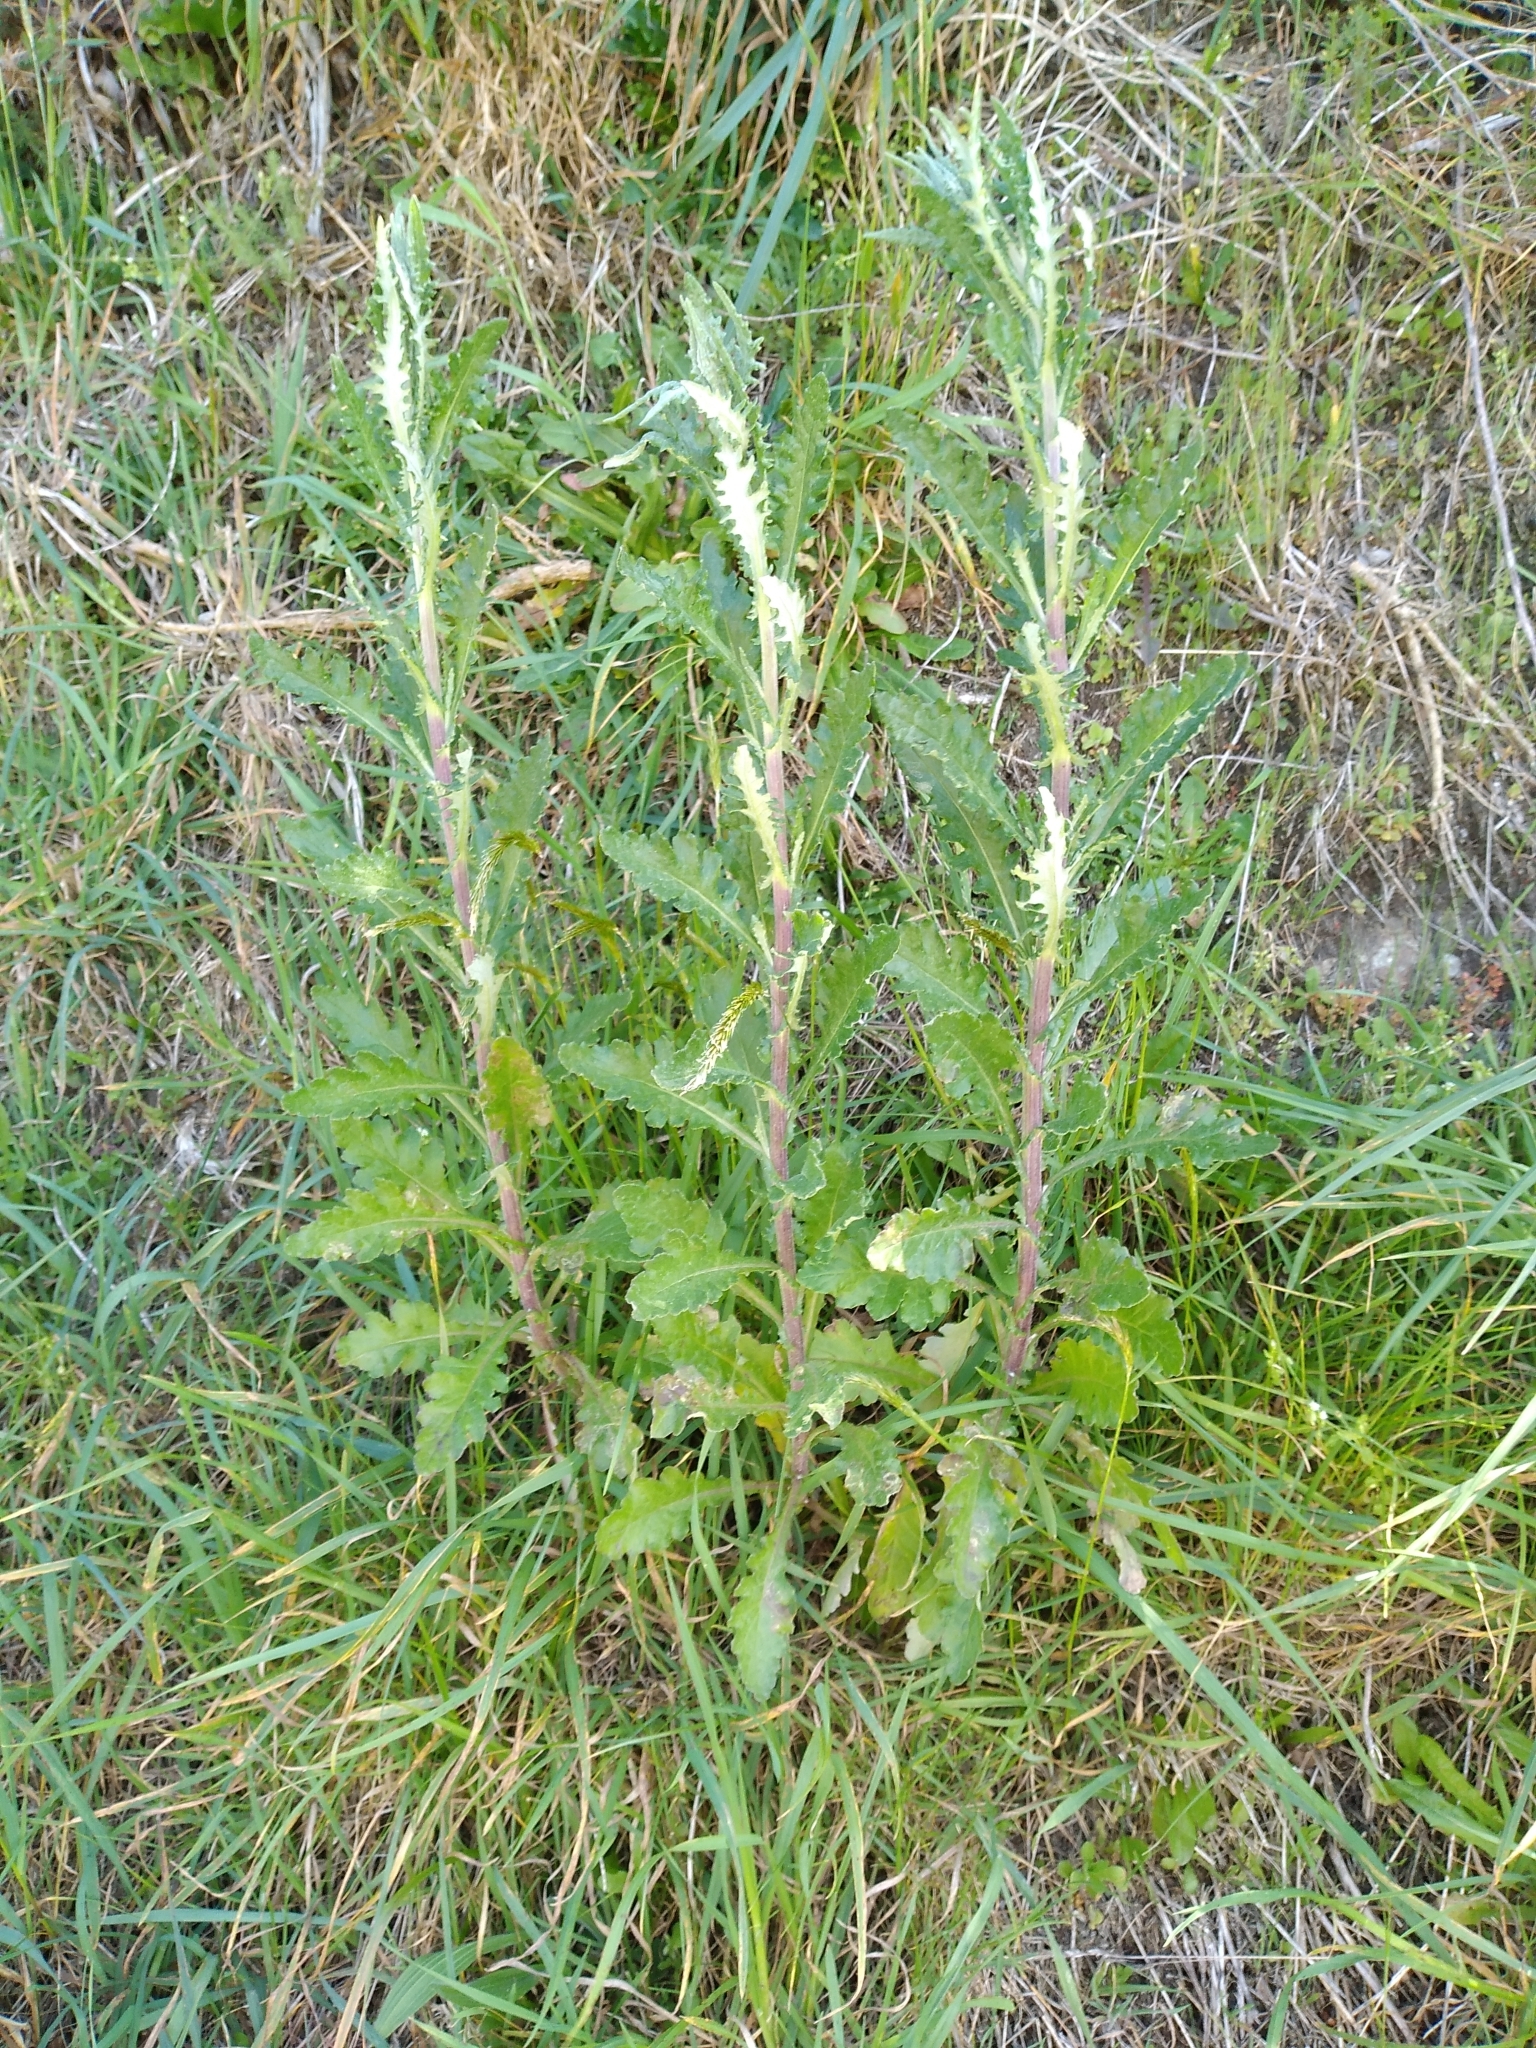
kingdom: Plantae
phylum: Tracheophyta
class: Magnoliopsida
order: Asterales
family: Asteraceae
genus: Senecio
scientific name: Senecio glomeratus
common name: Cutleaf burnweed
